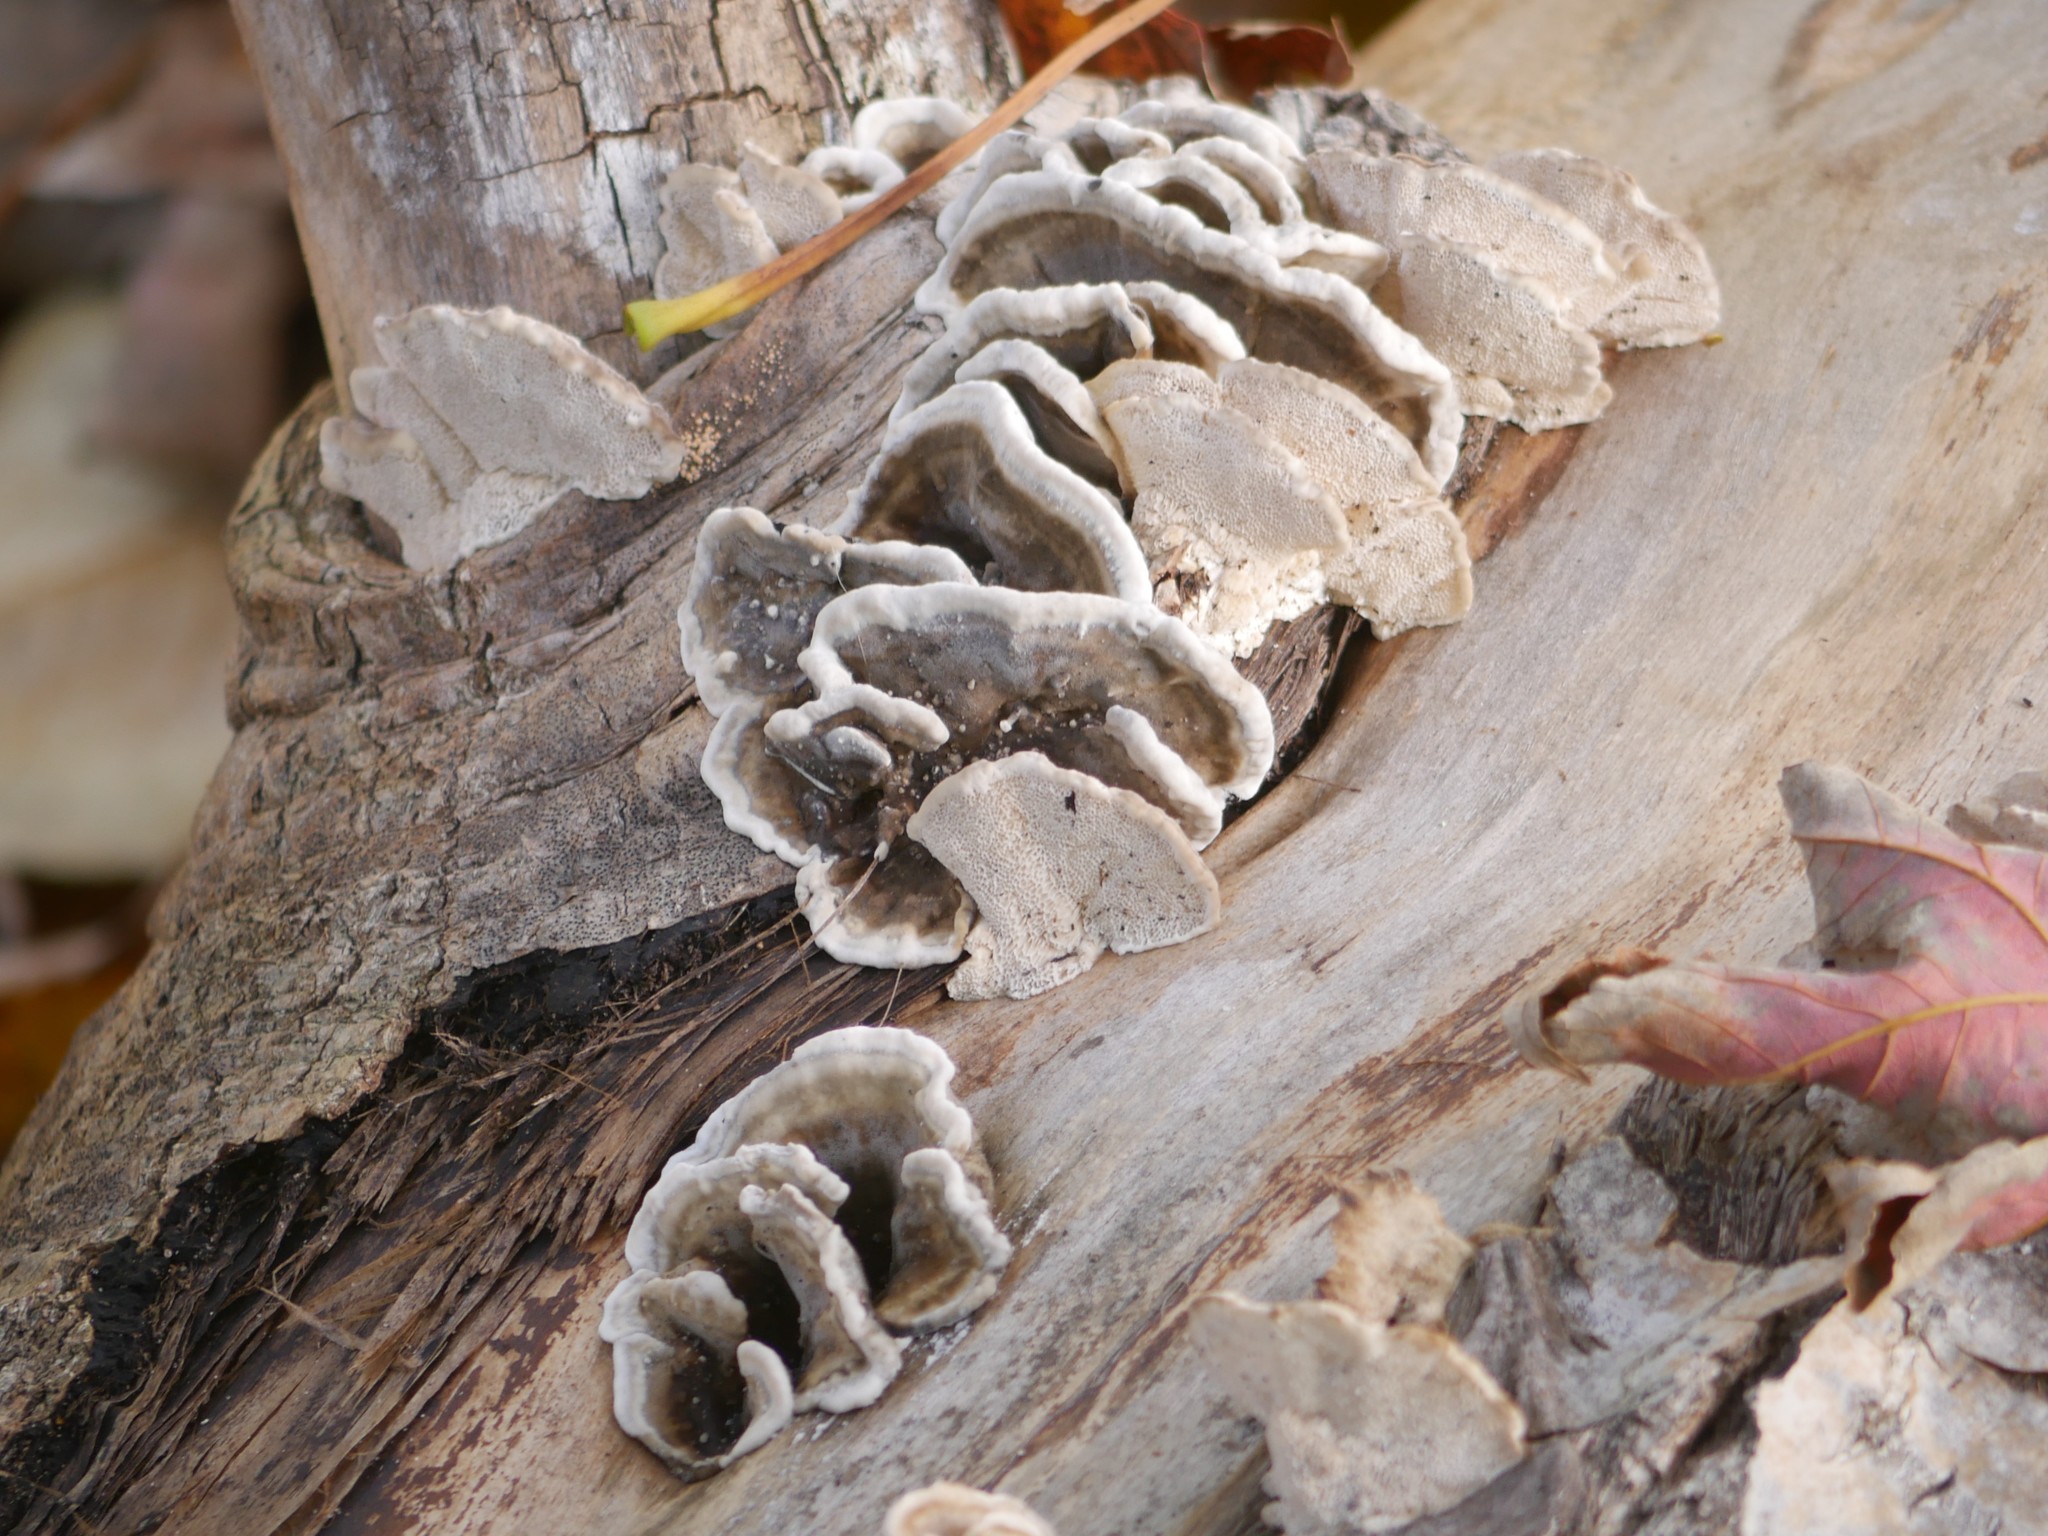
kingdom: Fungi
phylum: Basidiomycota
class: Agaricomycetes
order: Polyporales
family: Polyporaceae
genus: Trametes
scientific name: Trametes versicolor
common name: Turkeytail
